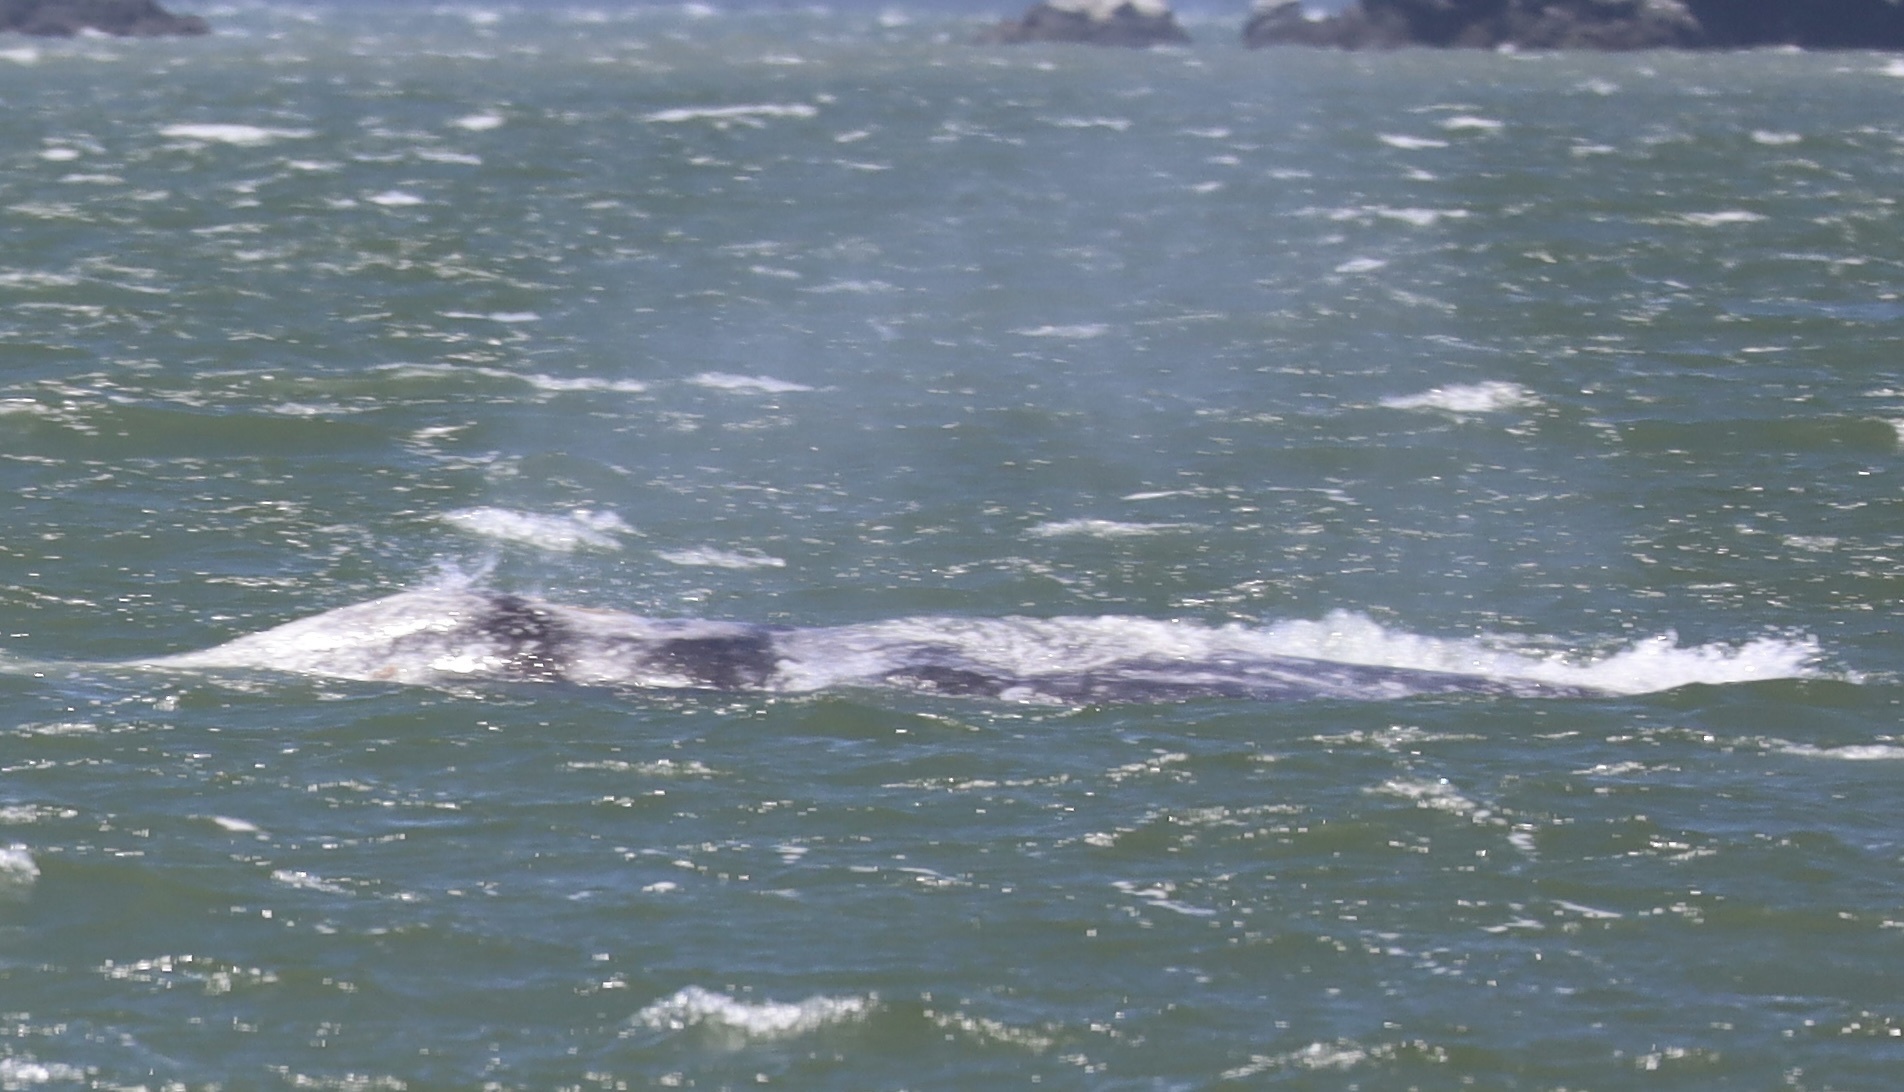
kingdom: Animalia
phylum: Chordata
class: Mammalia
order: Cetacea
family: Eschrichtiidae
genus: Eschrichtius
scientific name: Eschrichtius robustus
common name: Gray whale
